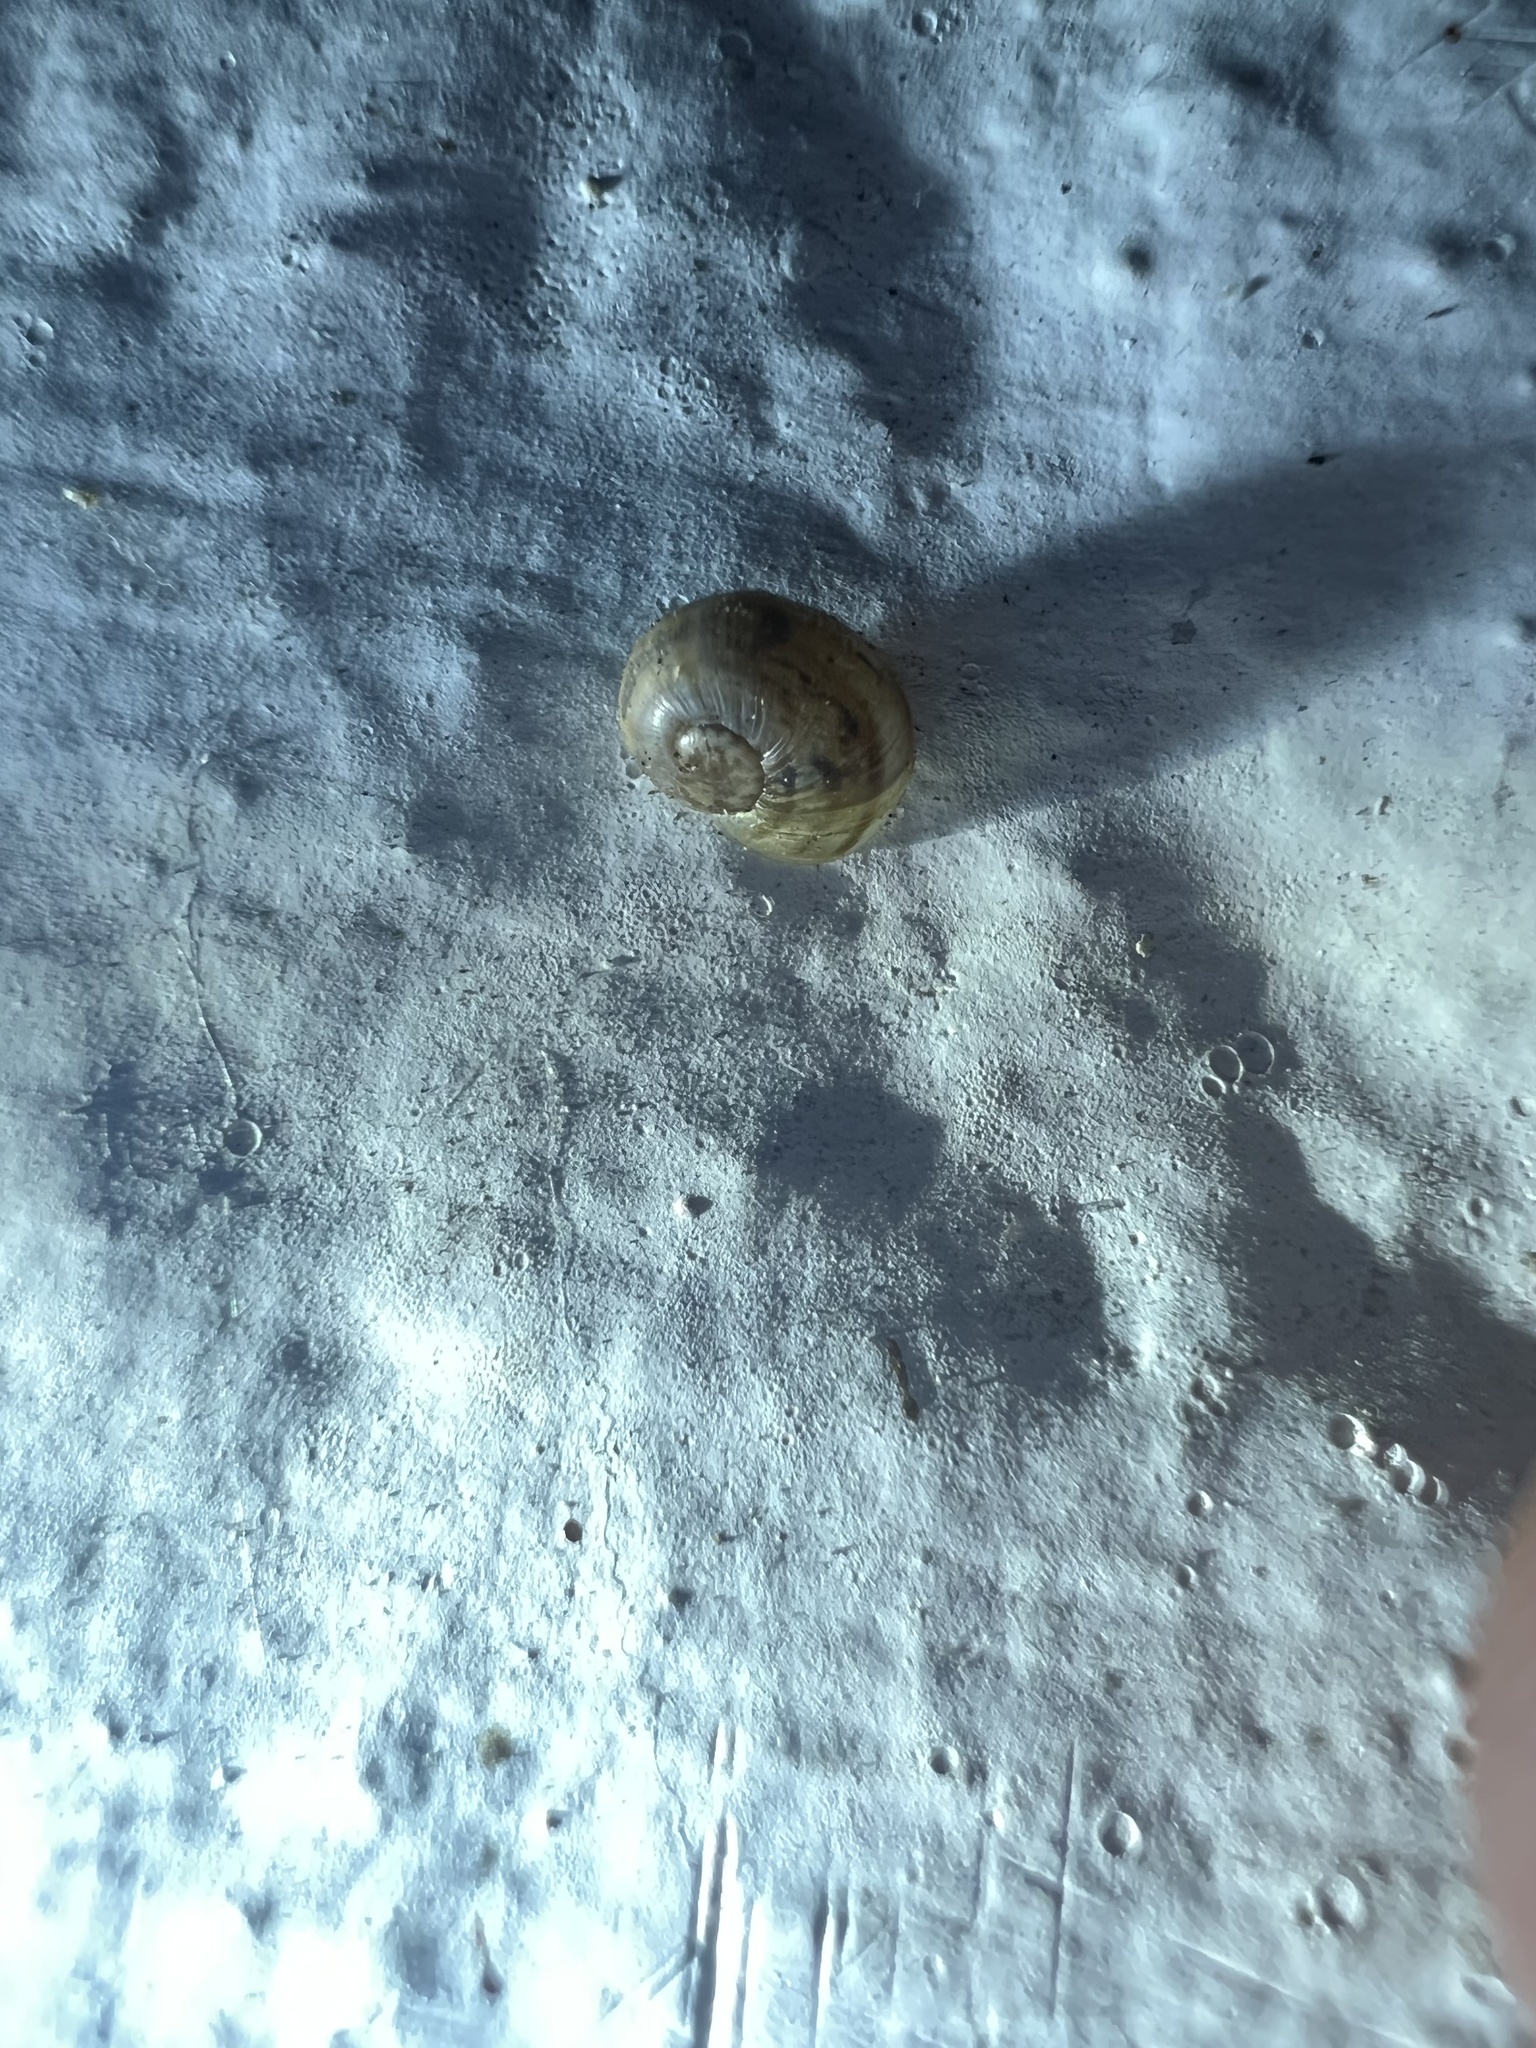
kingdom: Animalia
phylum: Mollusca
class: Gastropoda
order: Stylommatophora
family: Helicidae
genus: Cornu
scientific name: Cornu aspersum
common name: Brown garden snail
